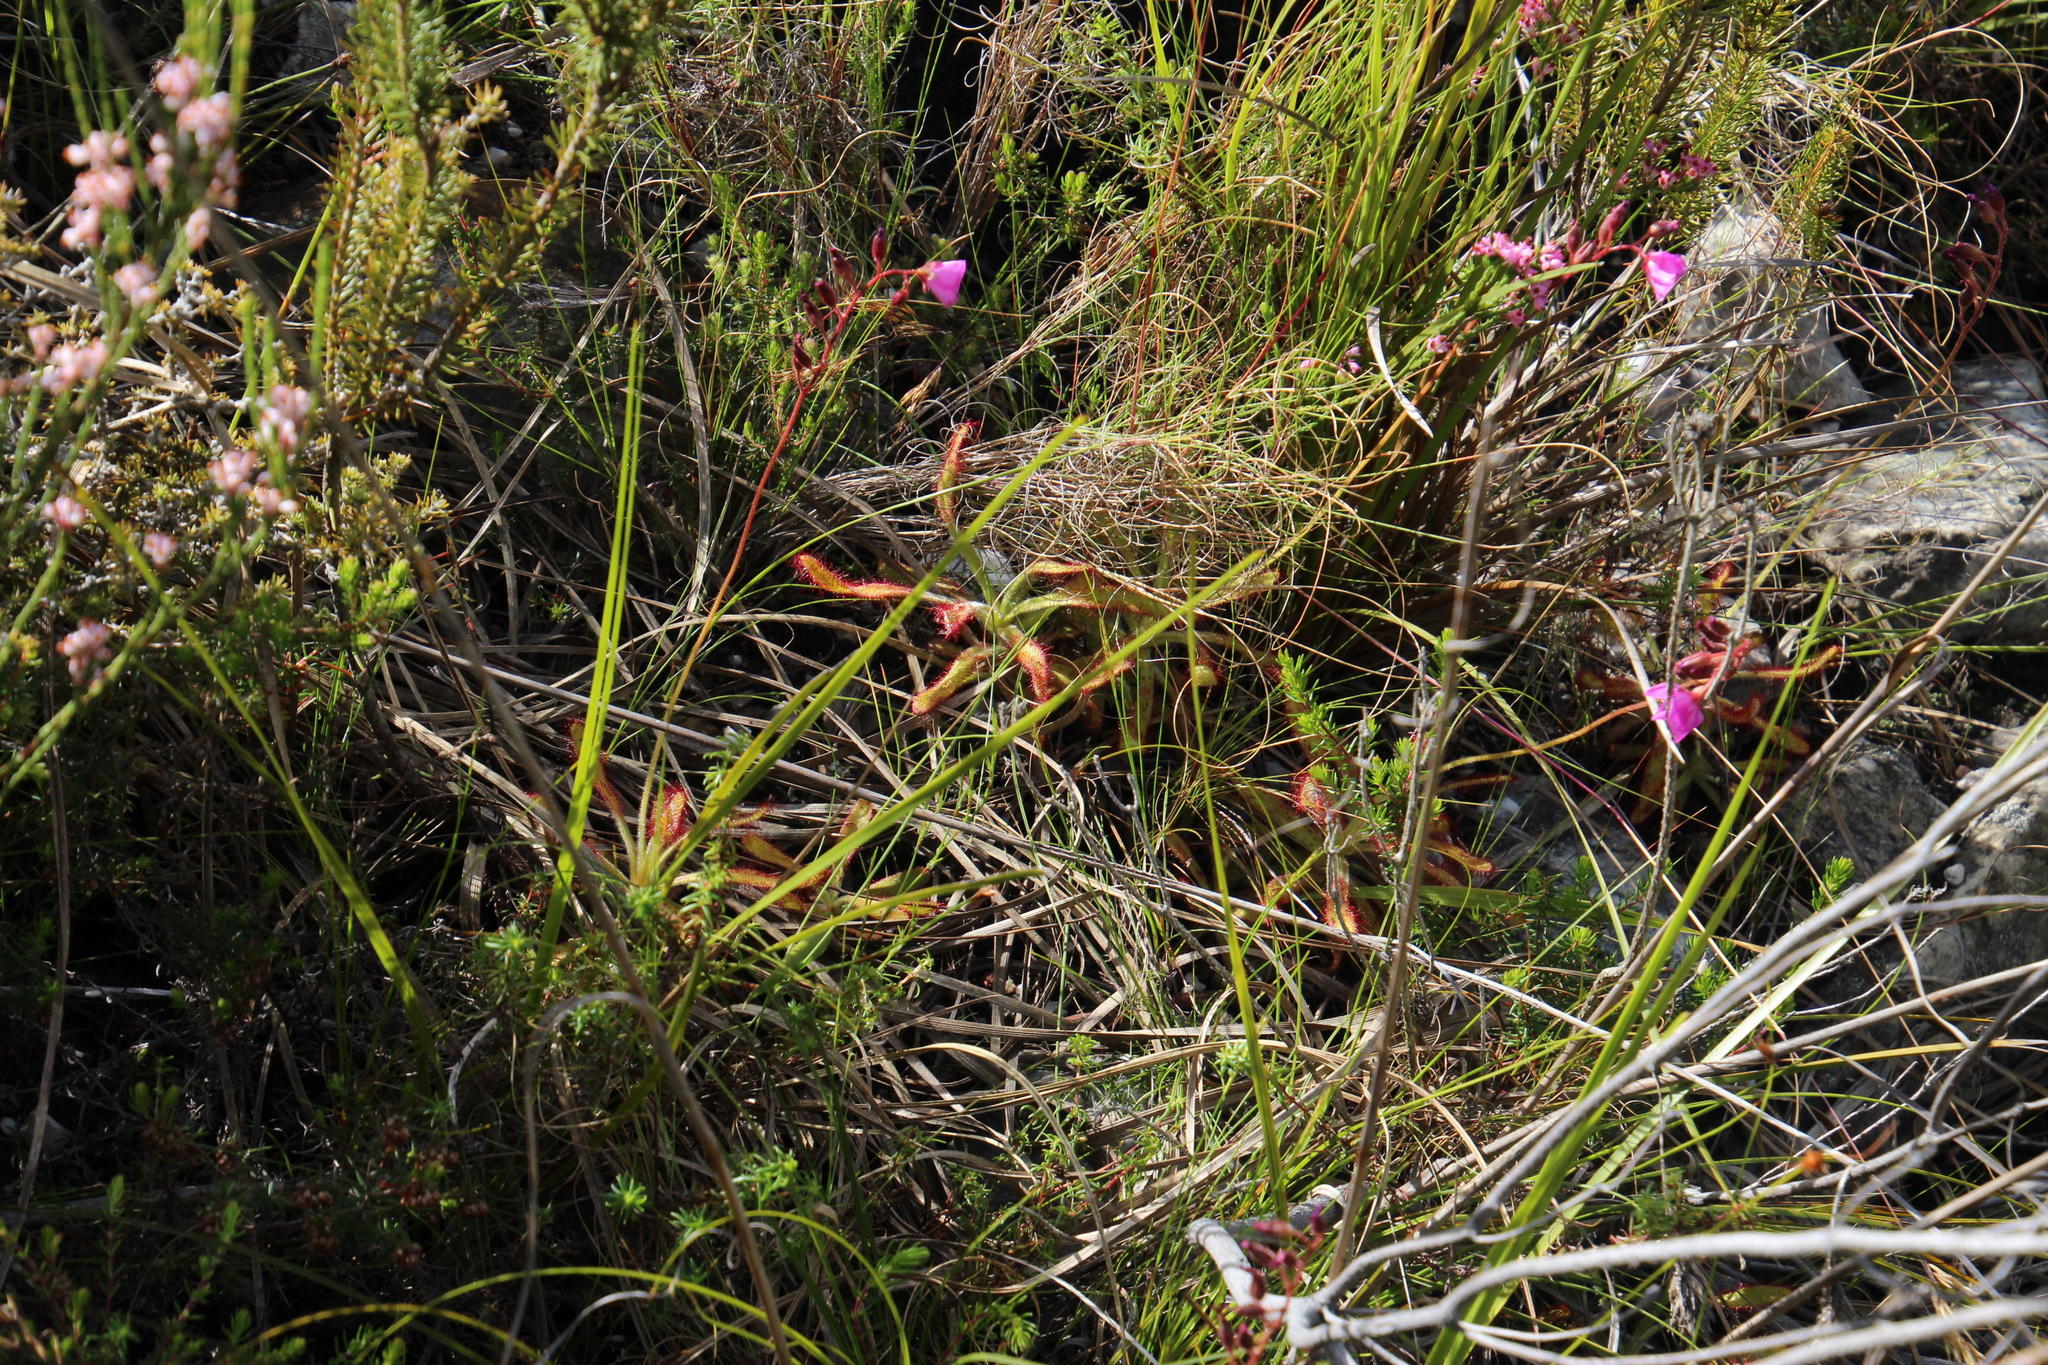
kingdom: Plantae
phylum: Tracheophyta
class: Magnoliopsida
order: Caryophyllales
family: Droseraceae
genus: Drosera
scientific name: Drosera hilaris
